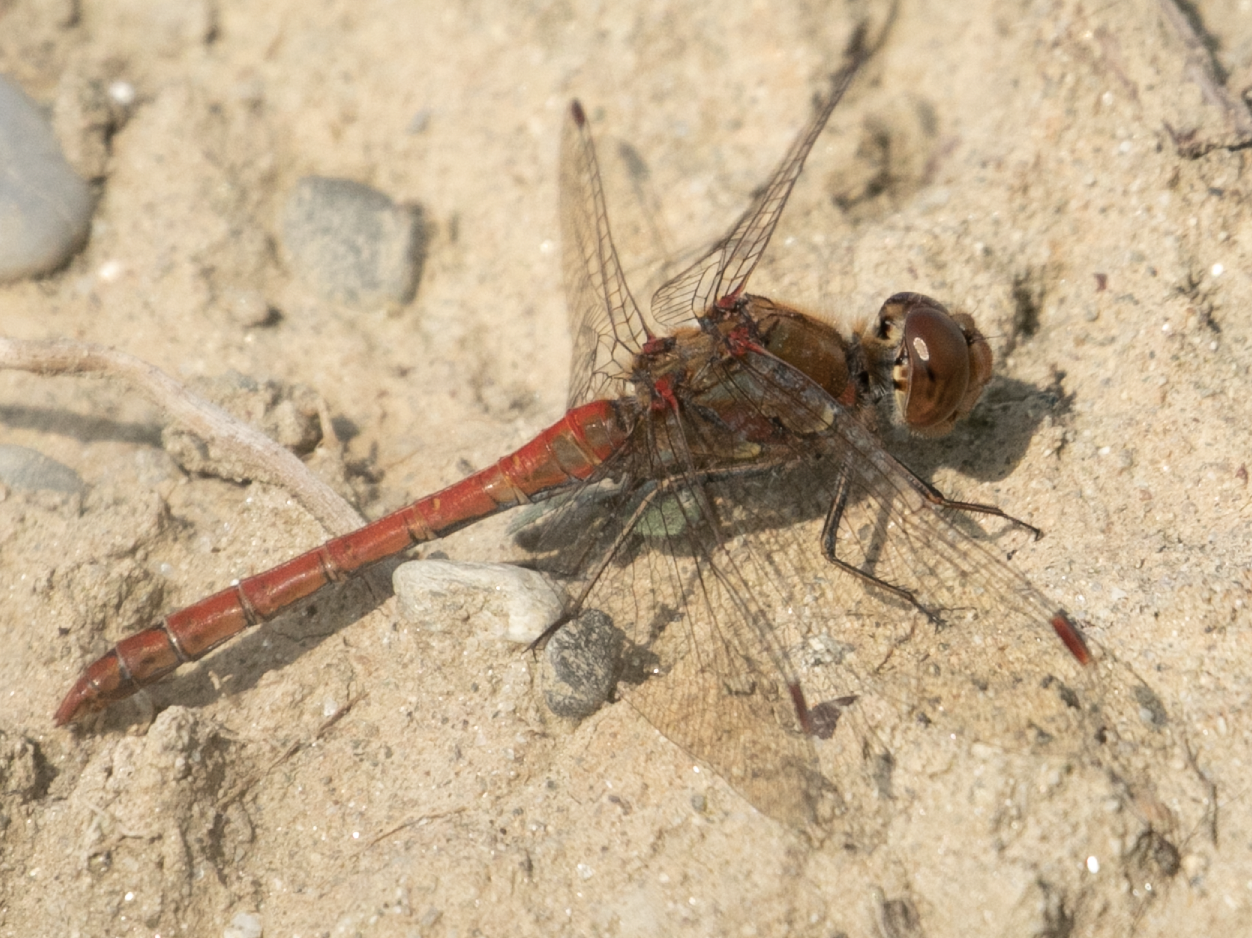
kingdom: Animalia
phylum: Arthropoda
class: Insecta
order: Odonata
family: Libellulidae
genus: Sympetrum
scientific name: Sympetrum striolatum
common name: Common darter
